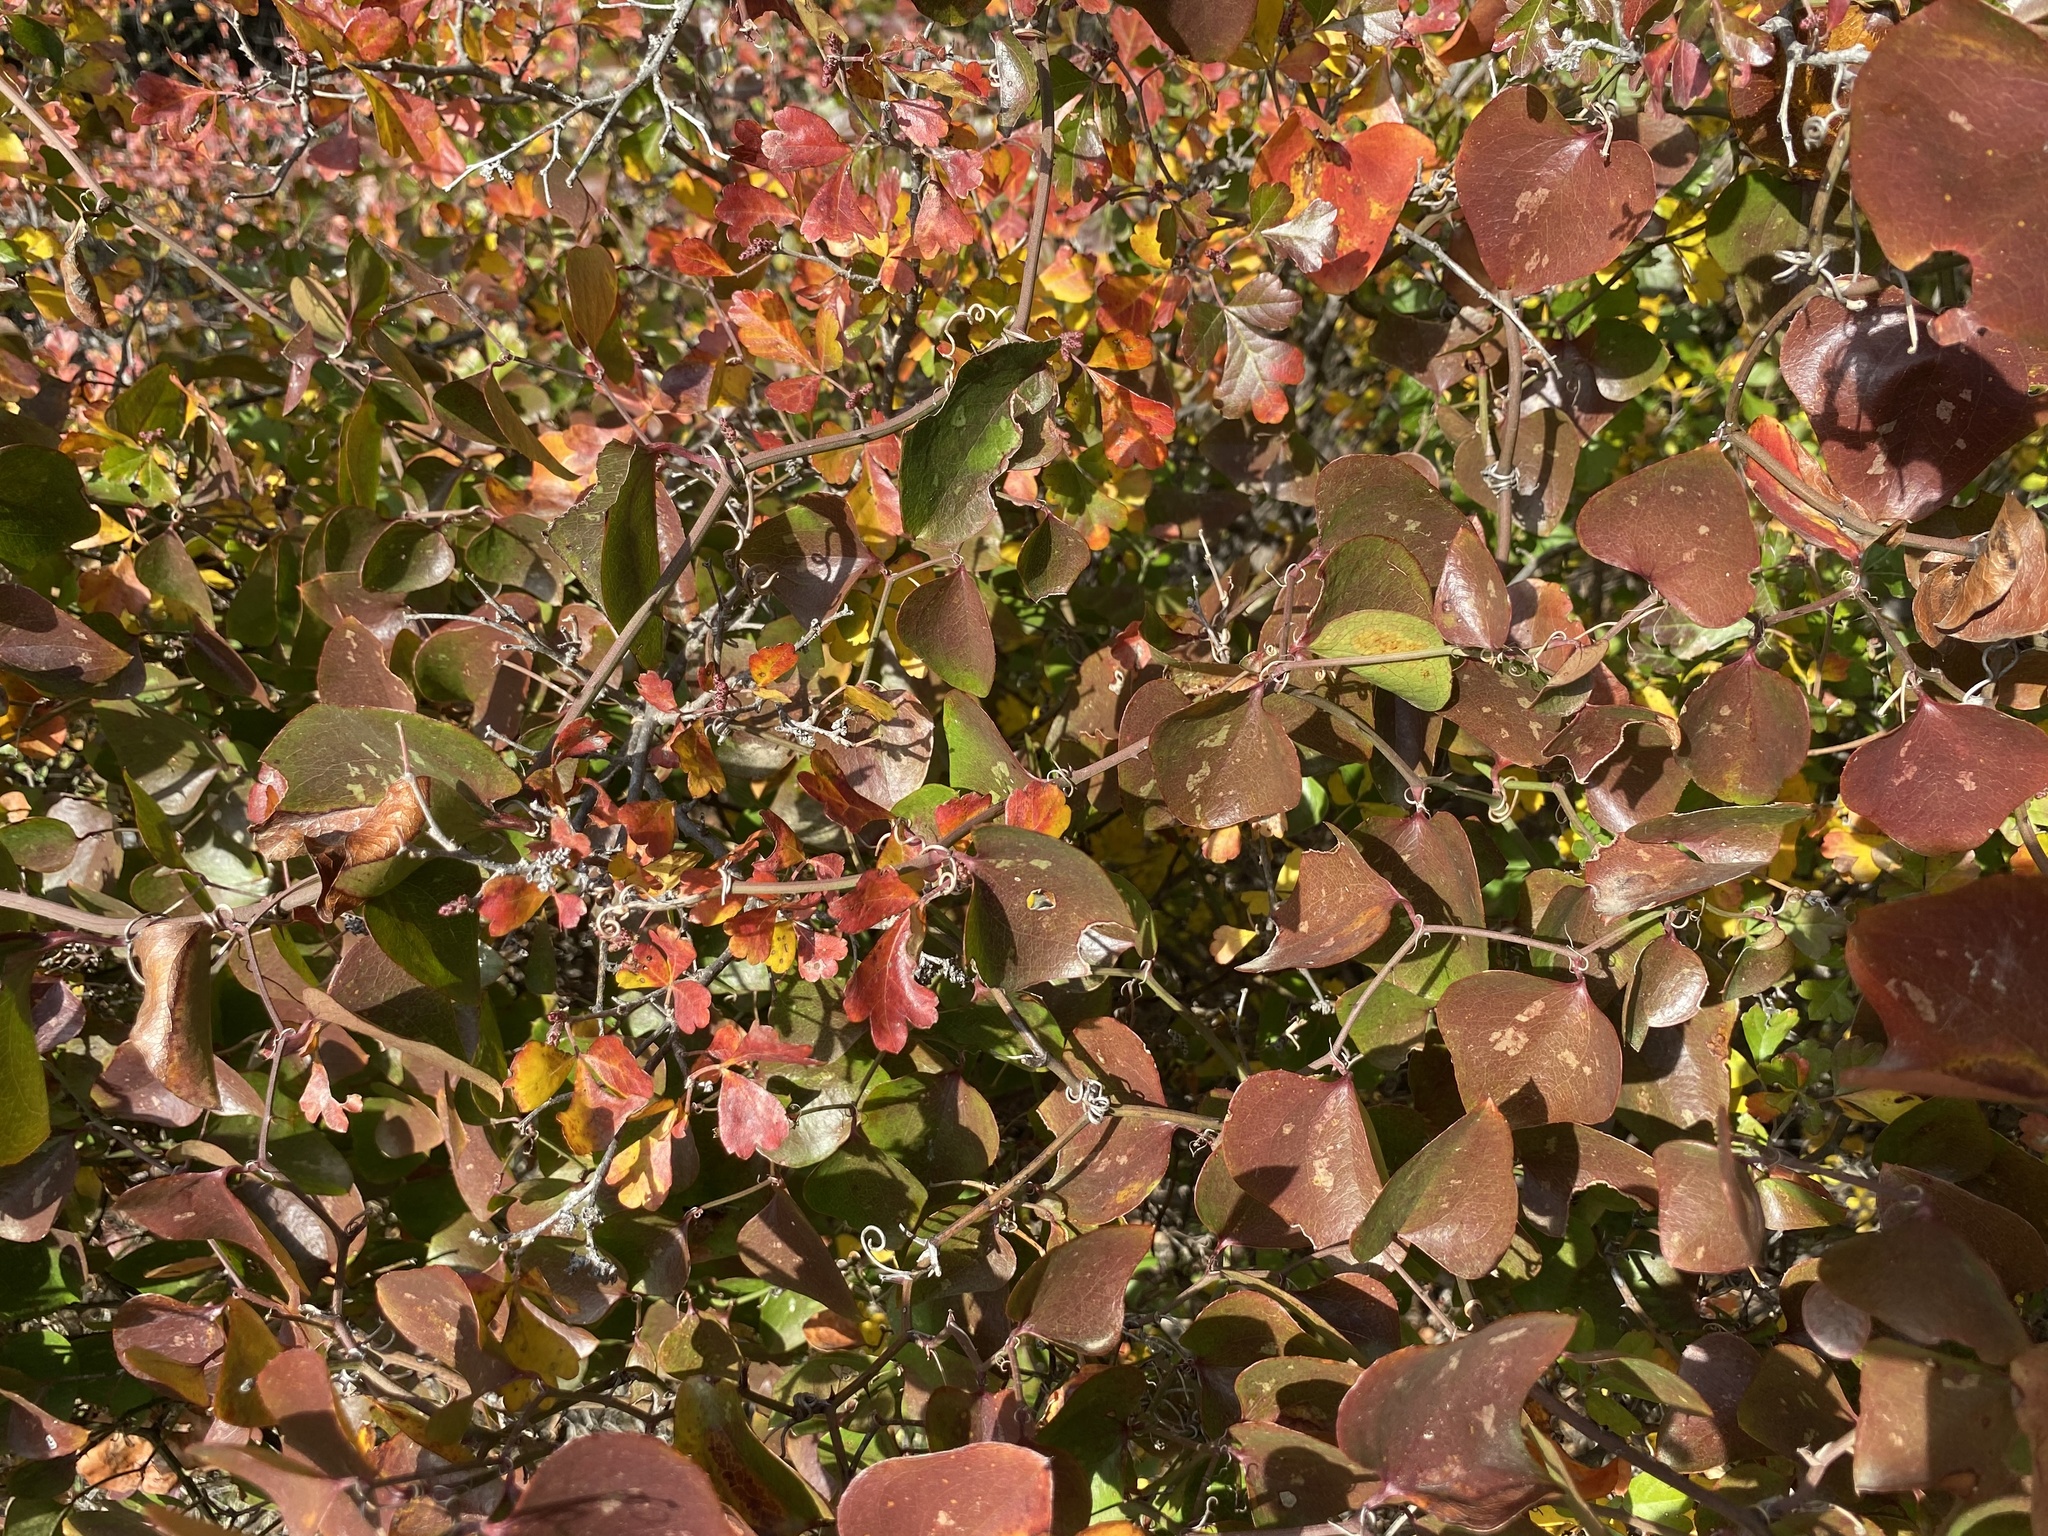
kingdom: Plantae
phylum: Tracheophyta
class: Liliopsida
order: Liliales
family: Smilacaceae
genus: Smilax
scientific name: Smilax bona-nox
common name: Catbrier
